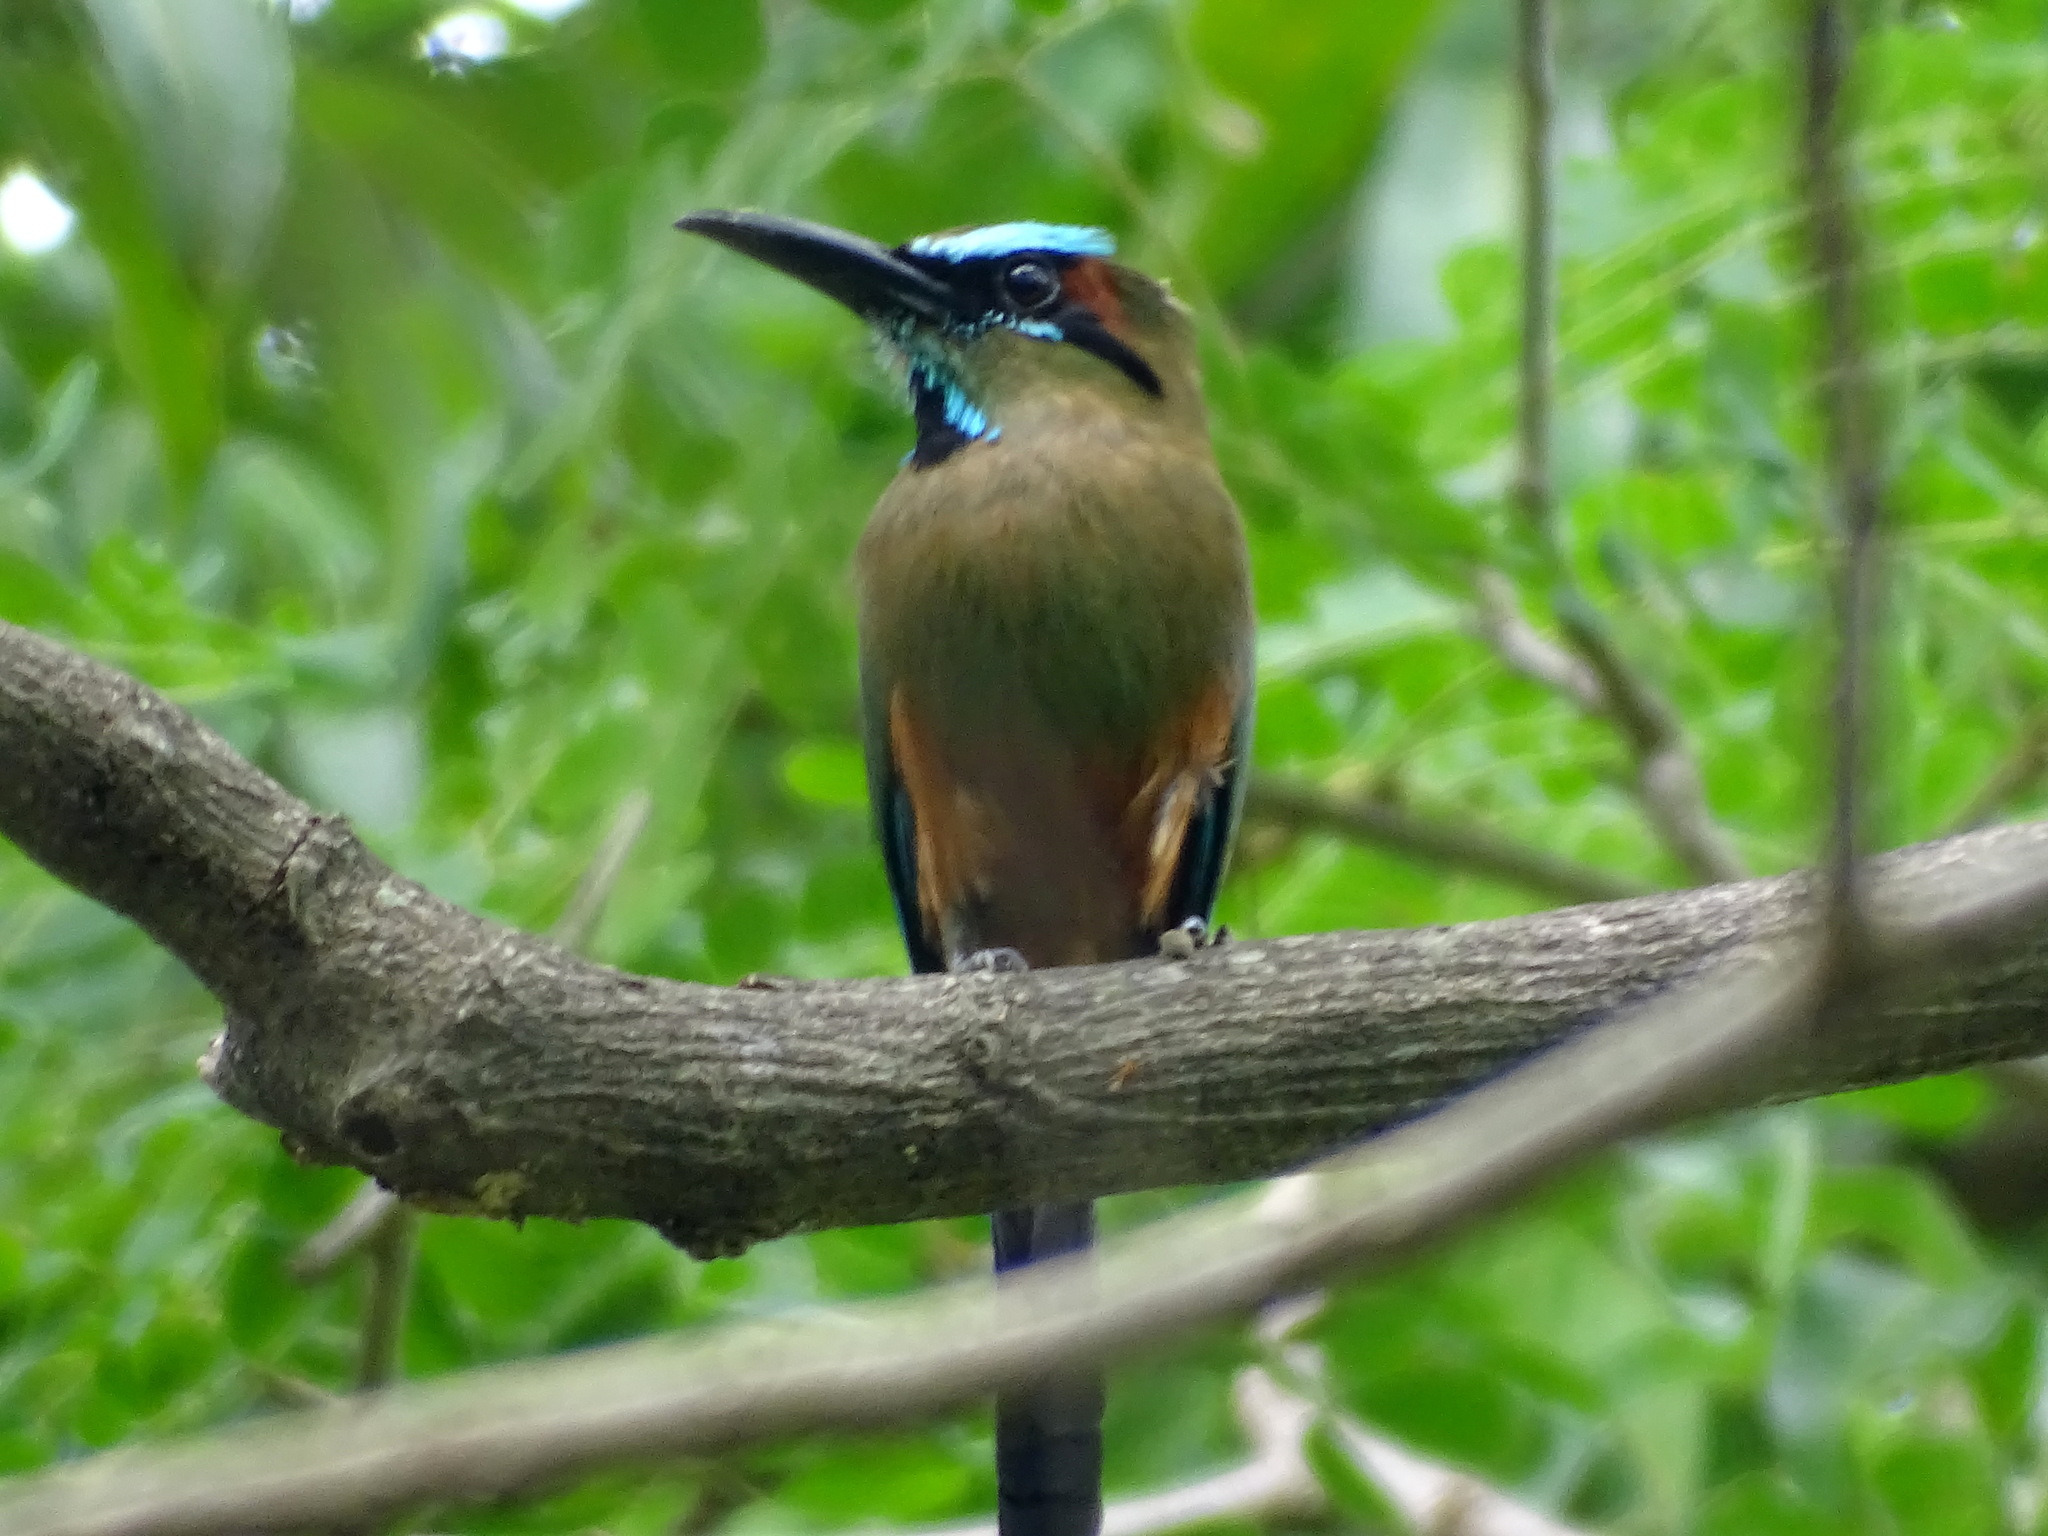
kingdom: Animalia
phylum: Chordata
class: Aves
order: Coraciiformes
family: Momotidae
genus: Eumomota
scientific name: Eumomota superciliosa
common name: Turquoise-browed motmot
